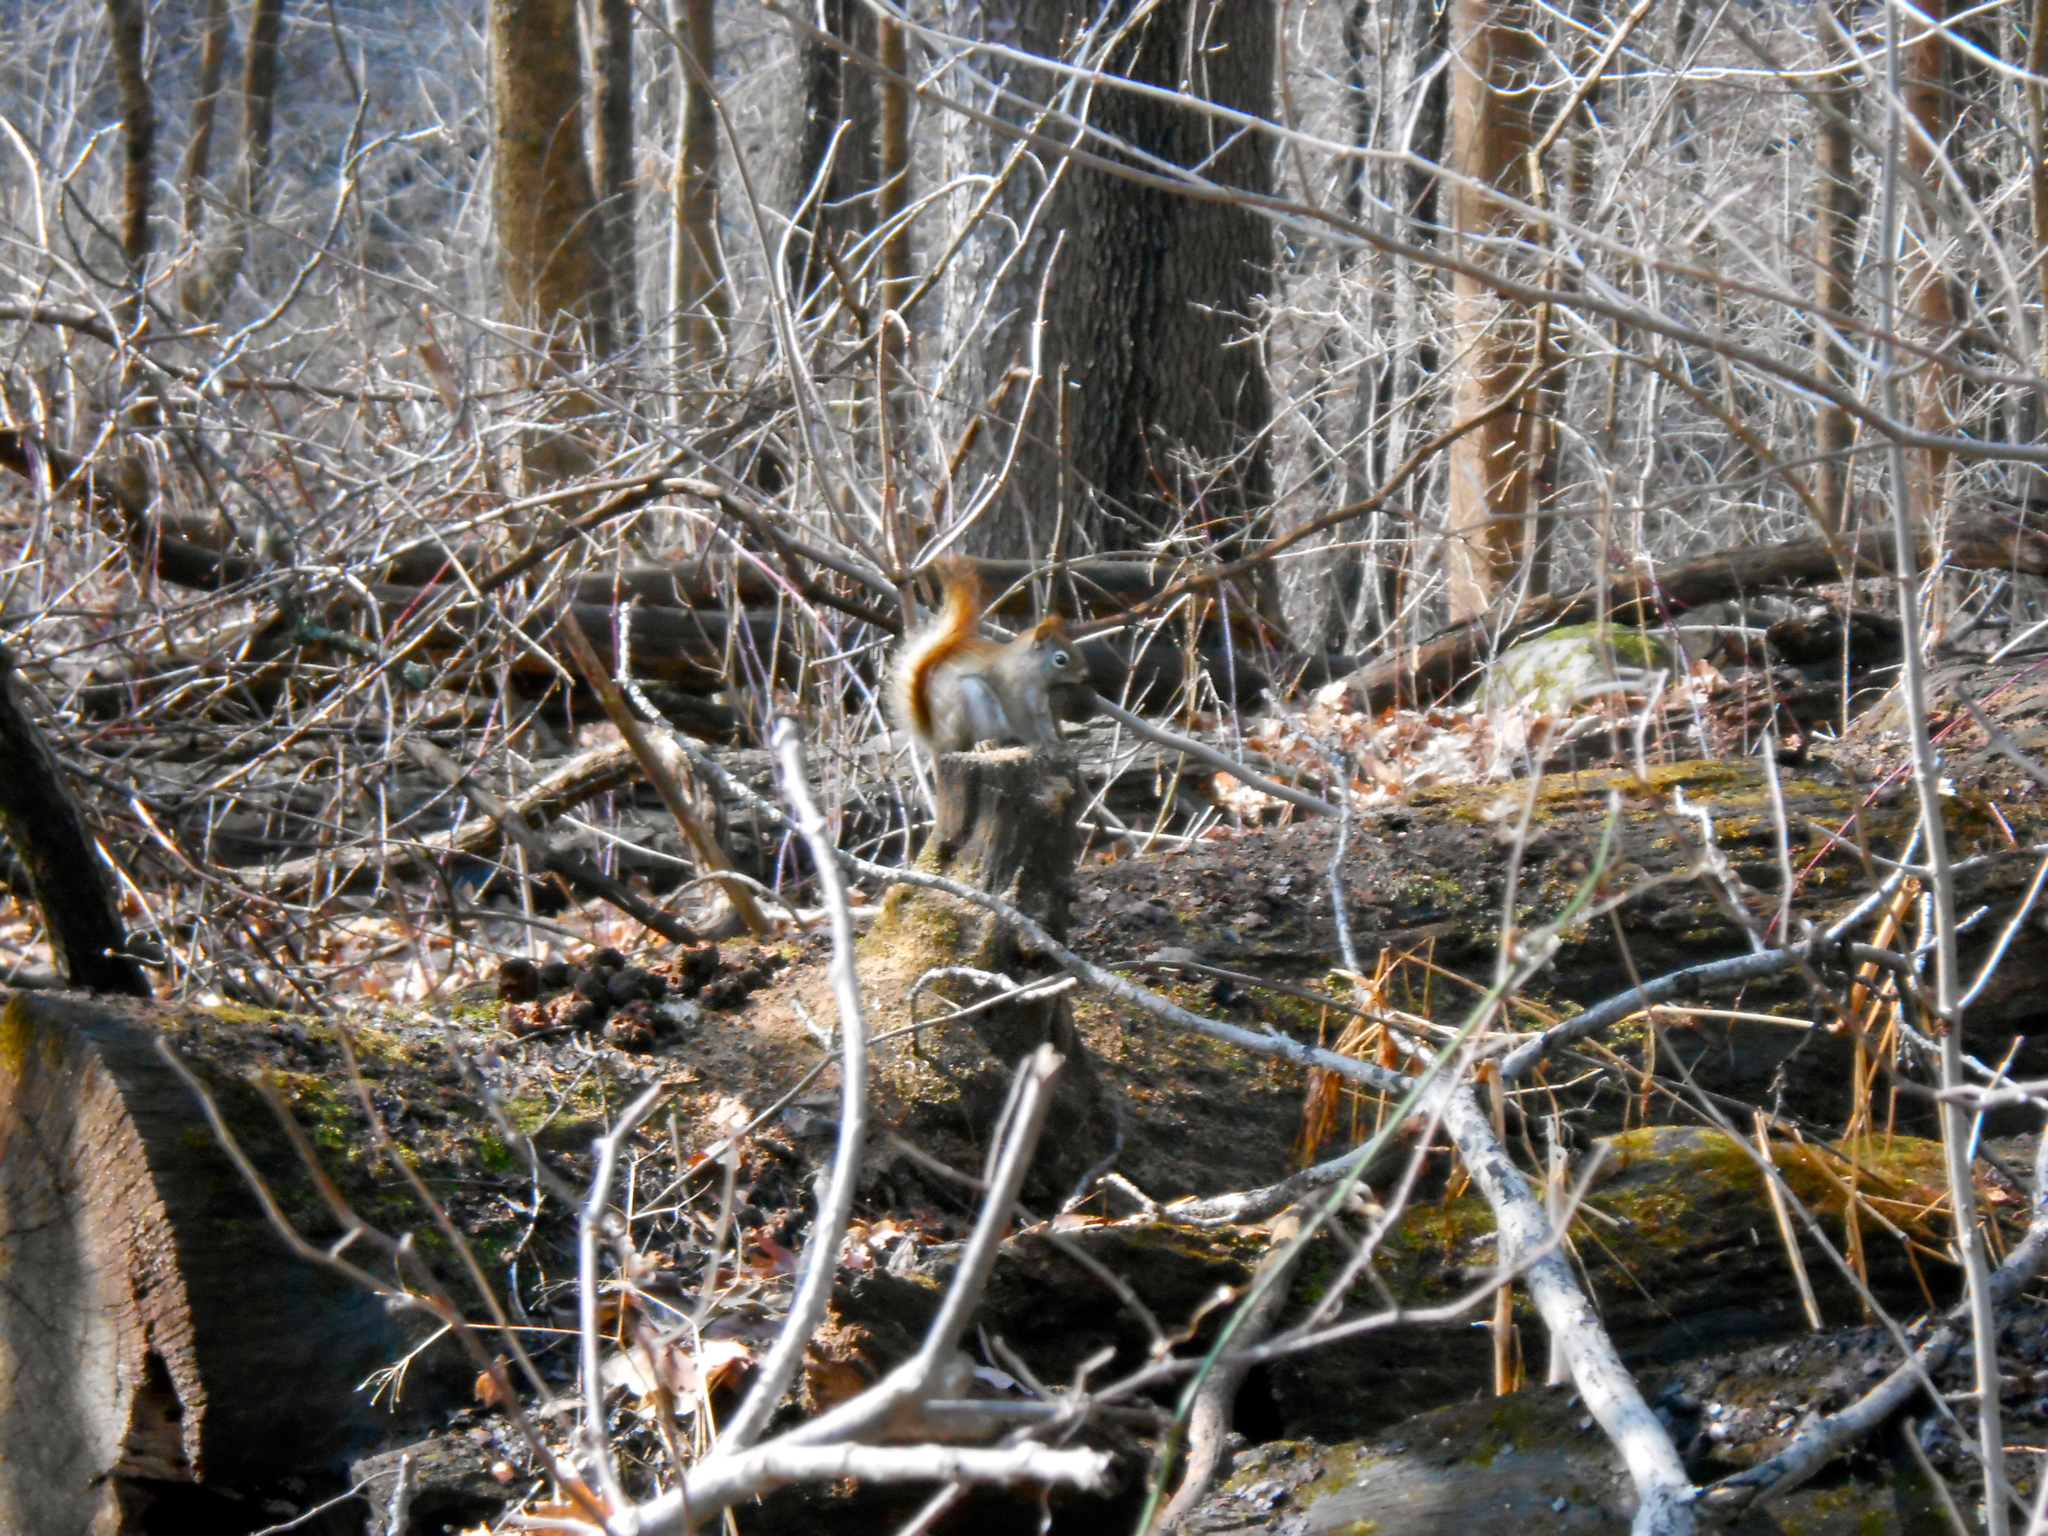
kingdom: Animalia
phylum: Chordata
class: Mammalia
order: Rodentia
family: Sciuridae
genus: Tamiasciurus
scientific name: Tamiasciurus hudsonicus
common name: Red squirrel
